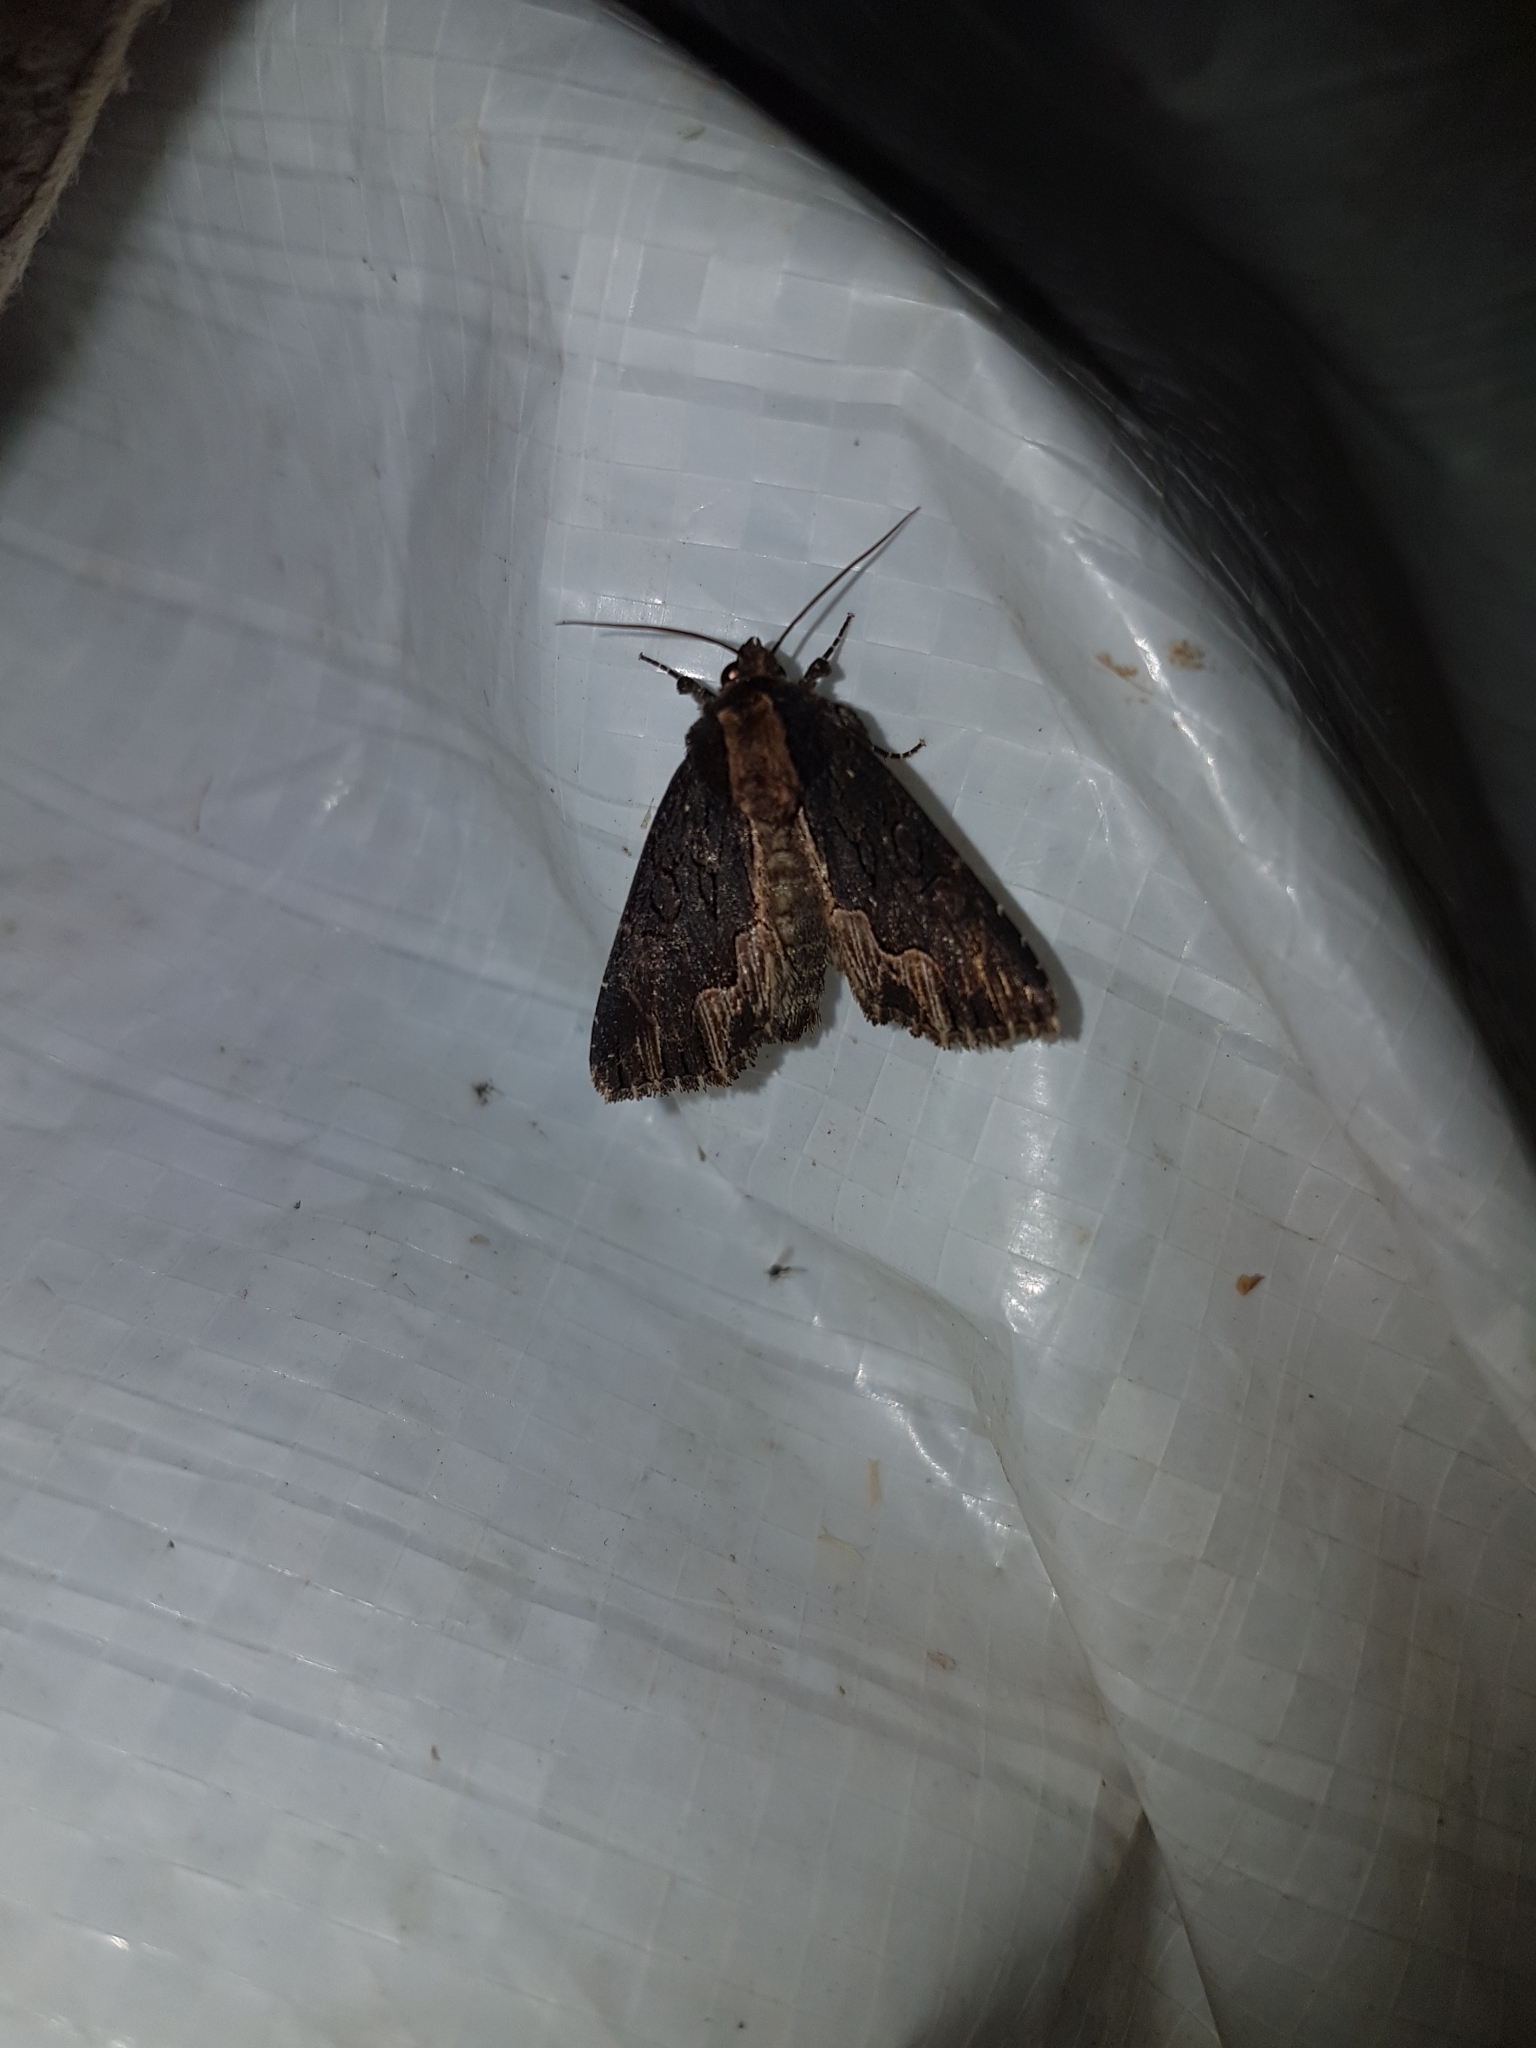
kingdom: Animalia
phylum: Arthropoda
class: Insecta
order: Lepidoptera
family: Noctuidae
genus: Dypterygia
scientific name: Dypterygia scabriuscula
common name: Bird's wing
